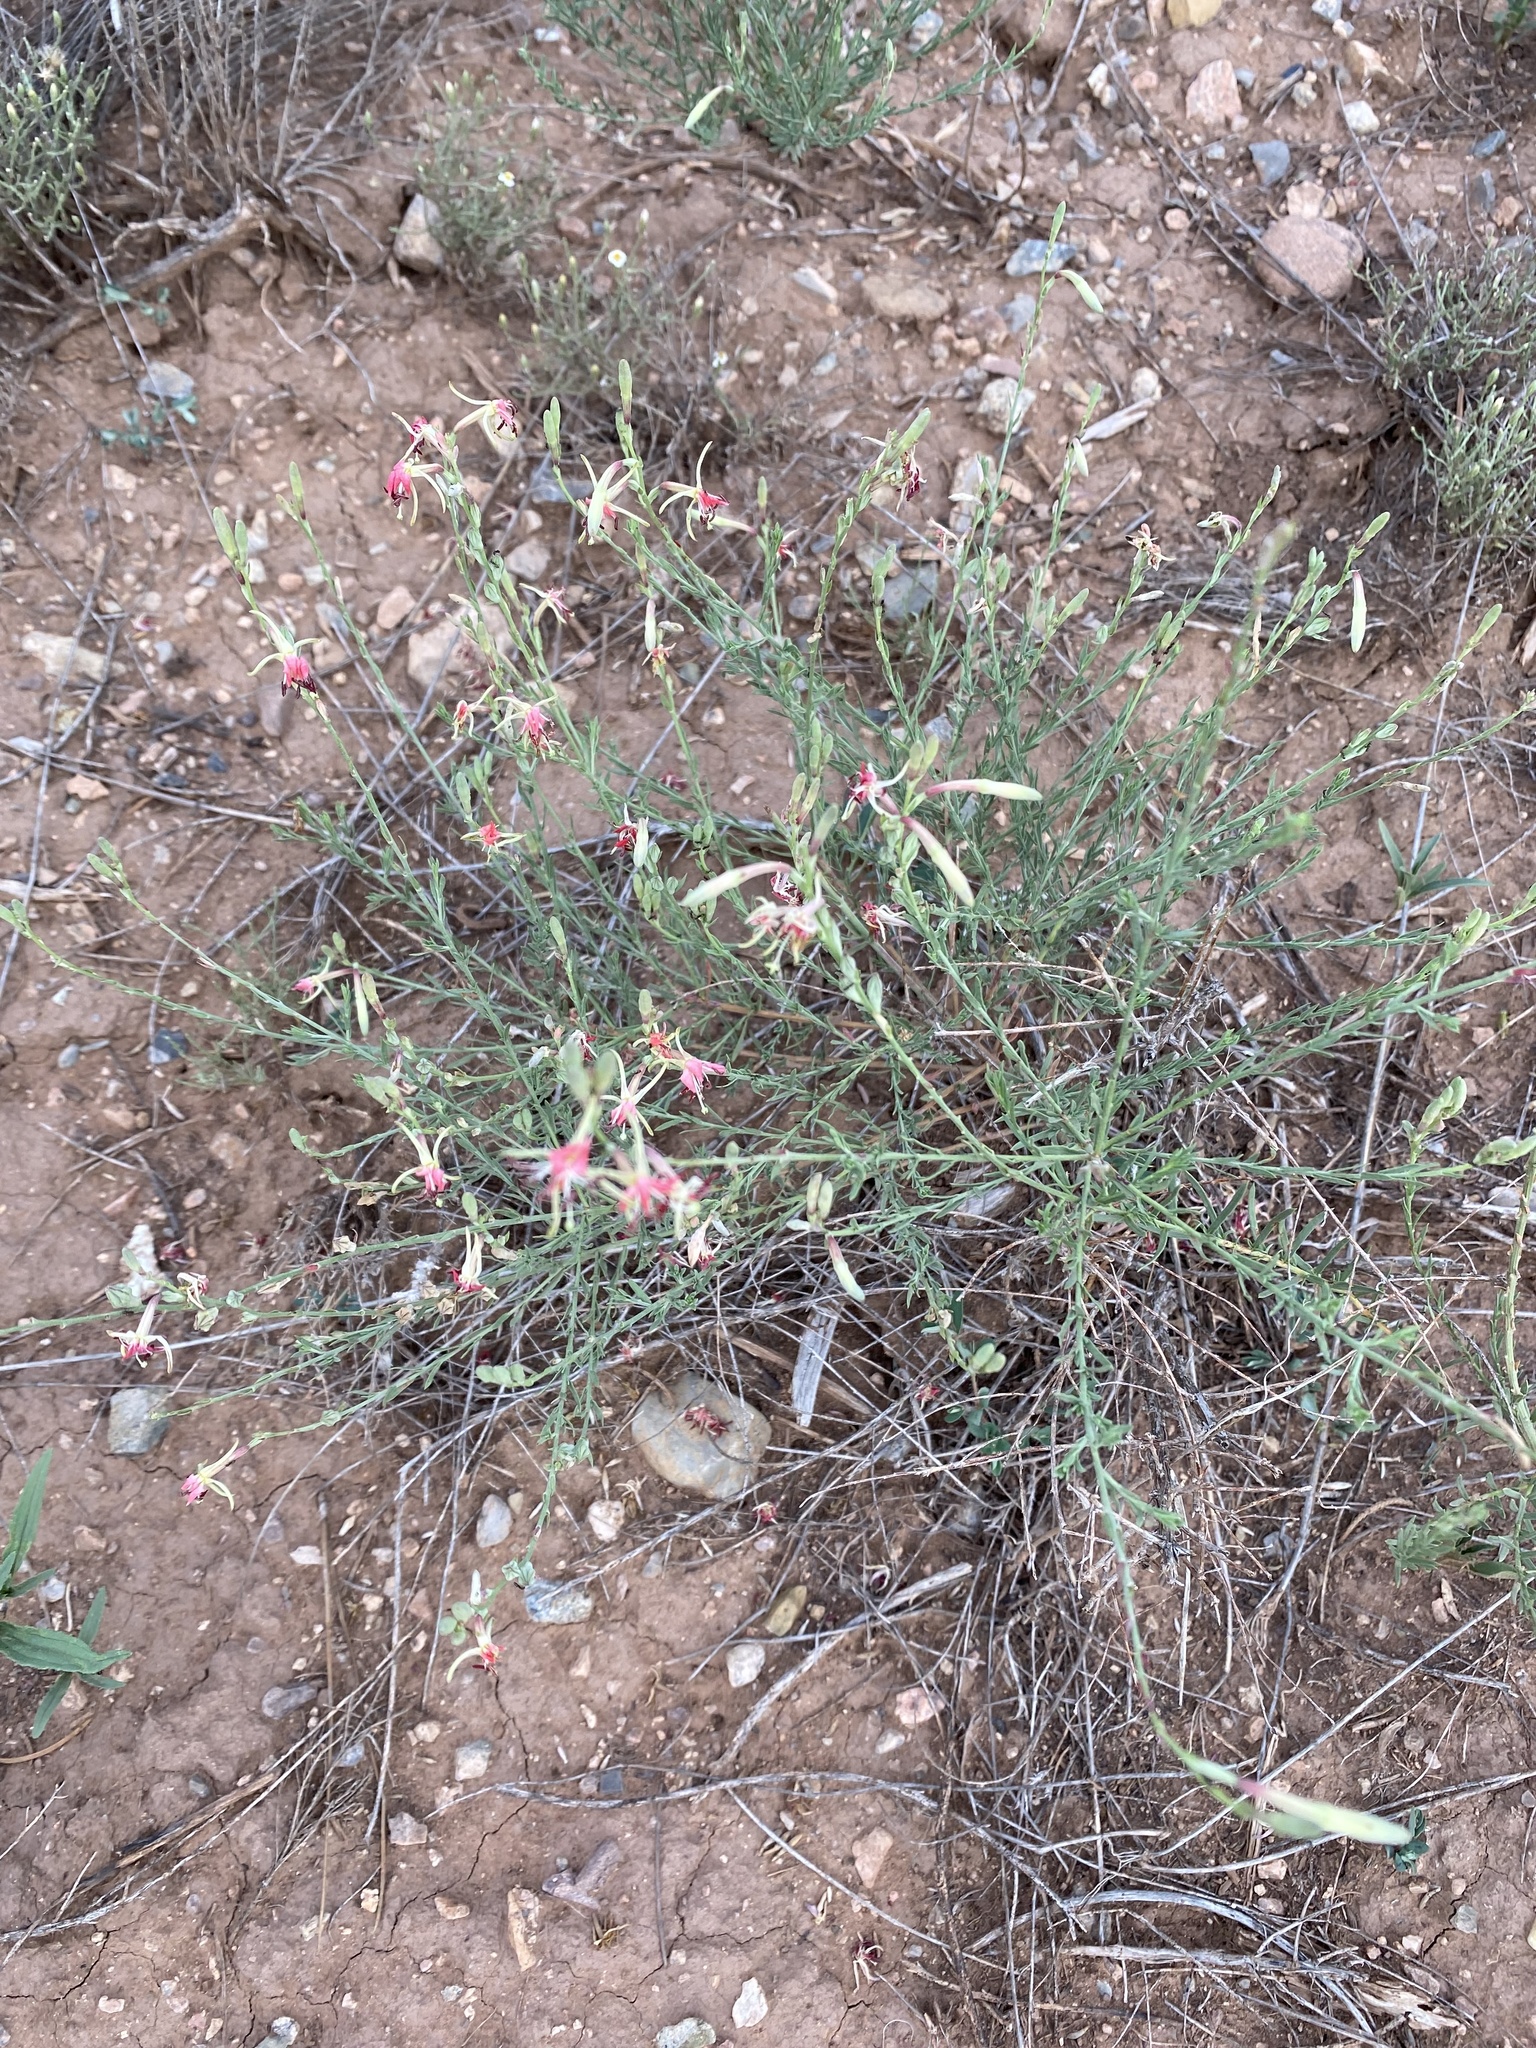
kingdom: Plantae
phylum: Tracheophyta
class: Magnoliopsida
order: Myrtales
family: Onagraceae
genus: Oenothera
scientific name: Oenothera suffrutescens
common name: Scarlet beeblossom
